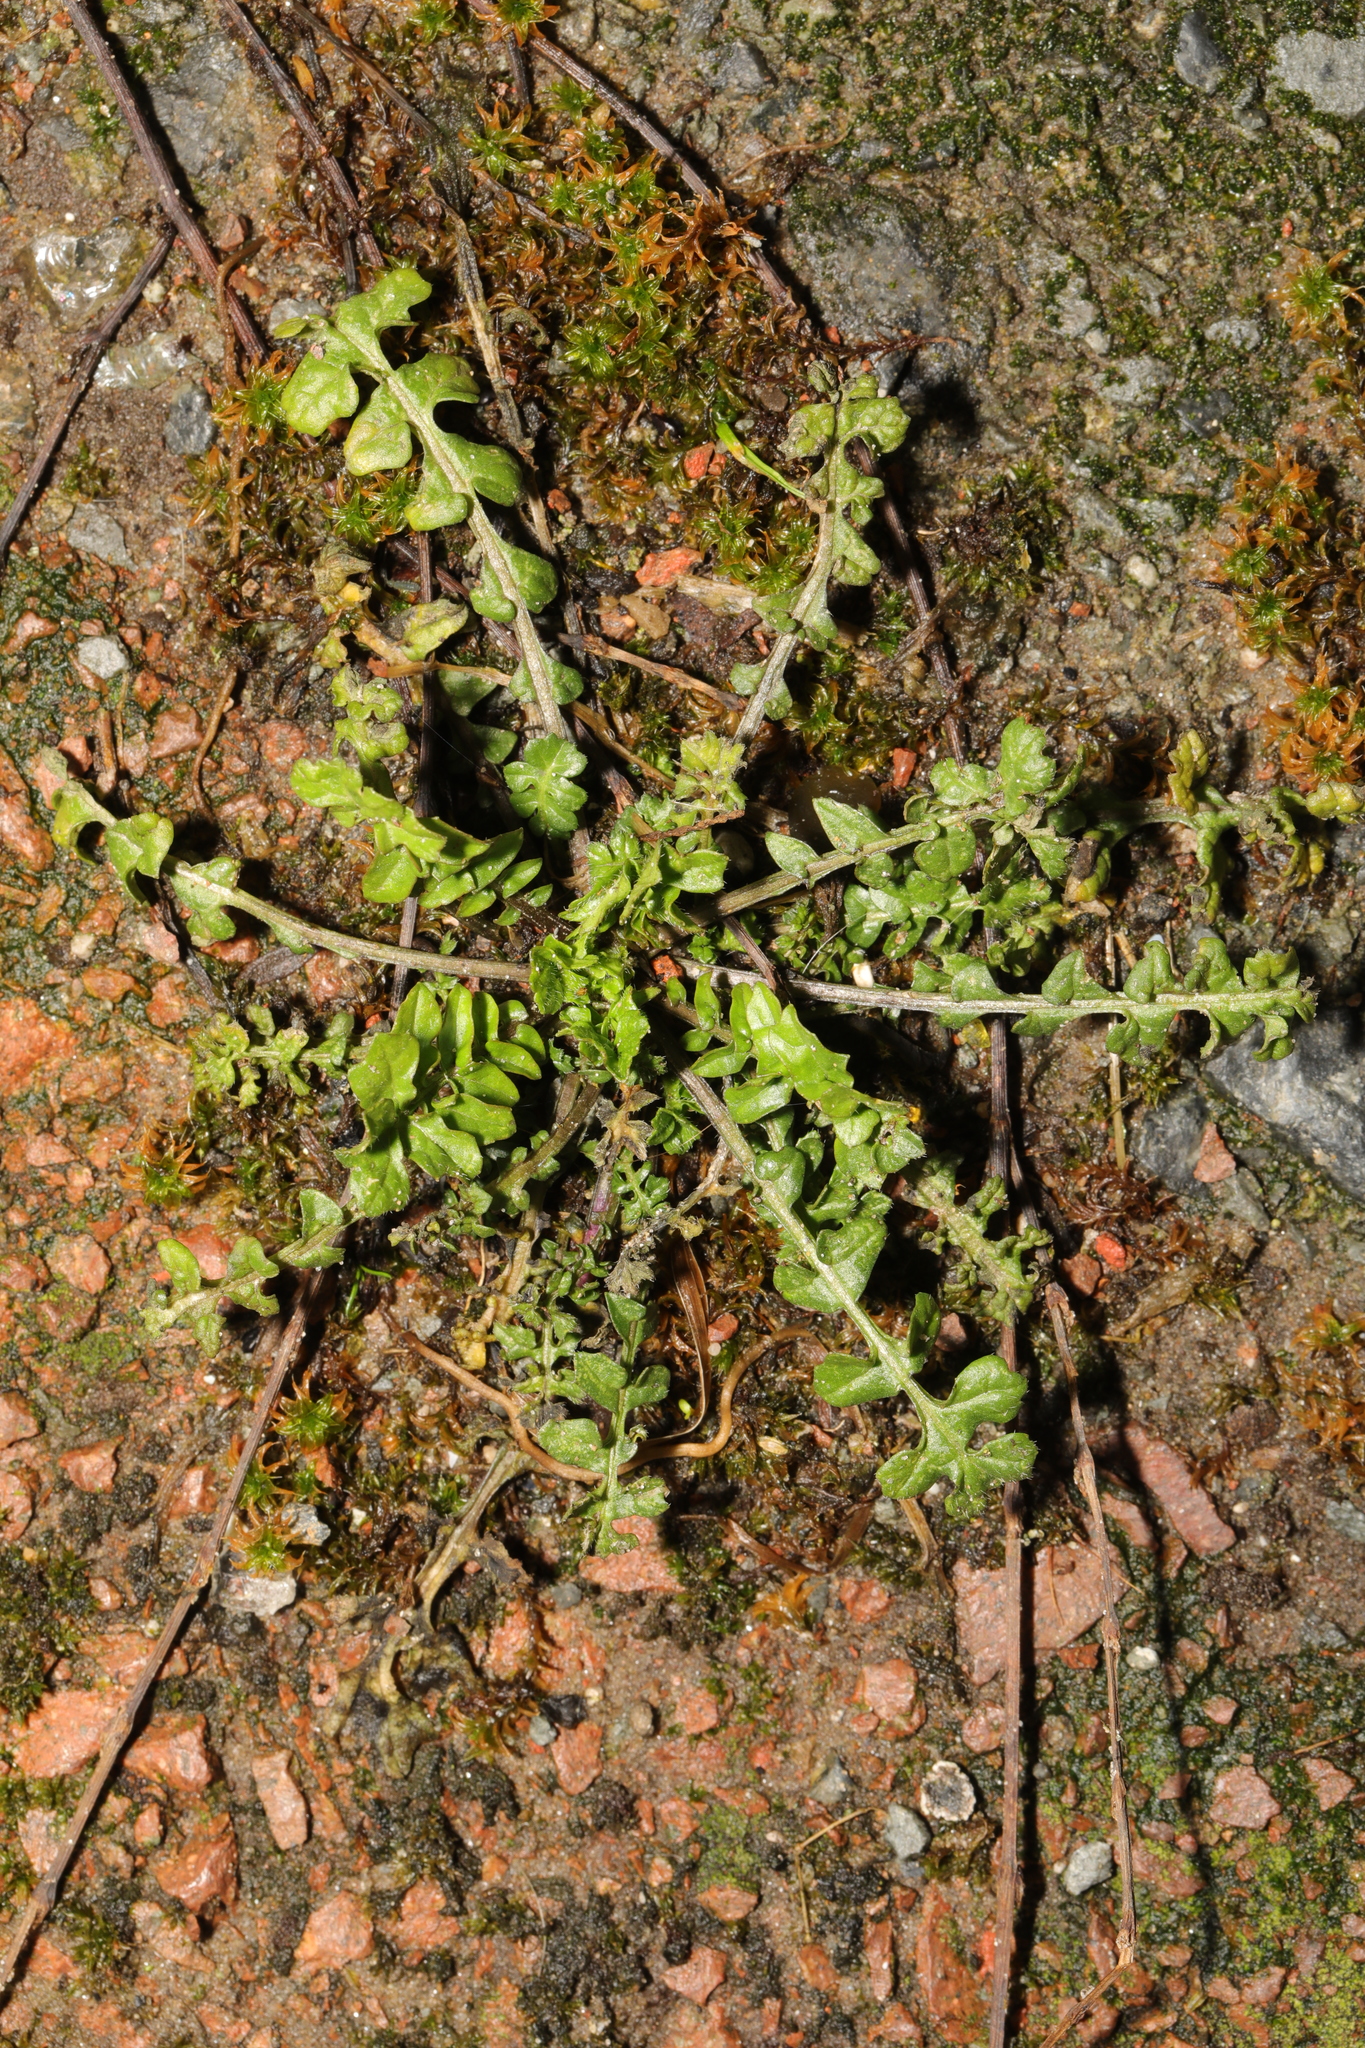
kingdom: Plantae
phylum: Tracheophyta
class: Magnoliopsida
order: Brassicales
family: Brassicaceae
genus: Capsella
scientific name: Capsella bursa-pastoris
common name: Shepherd's purse
